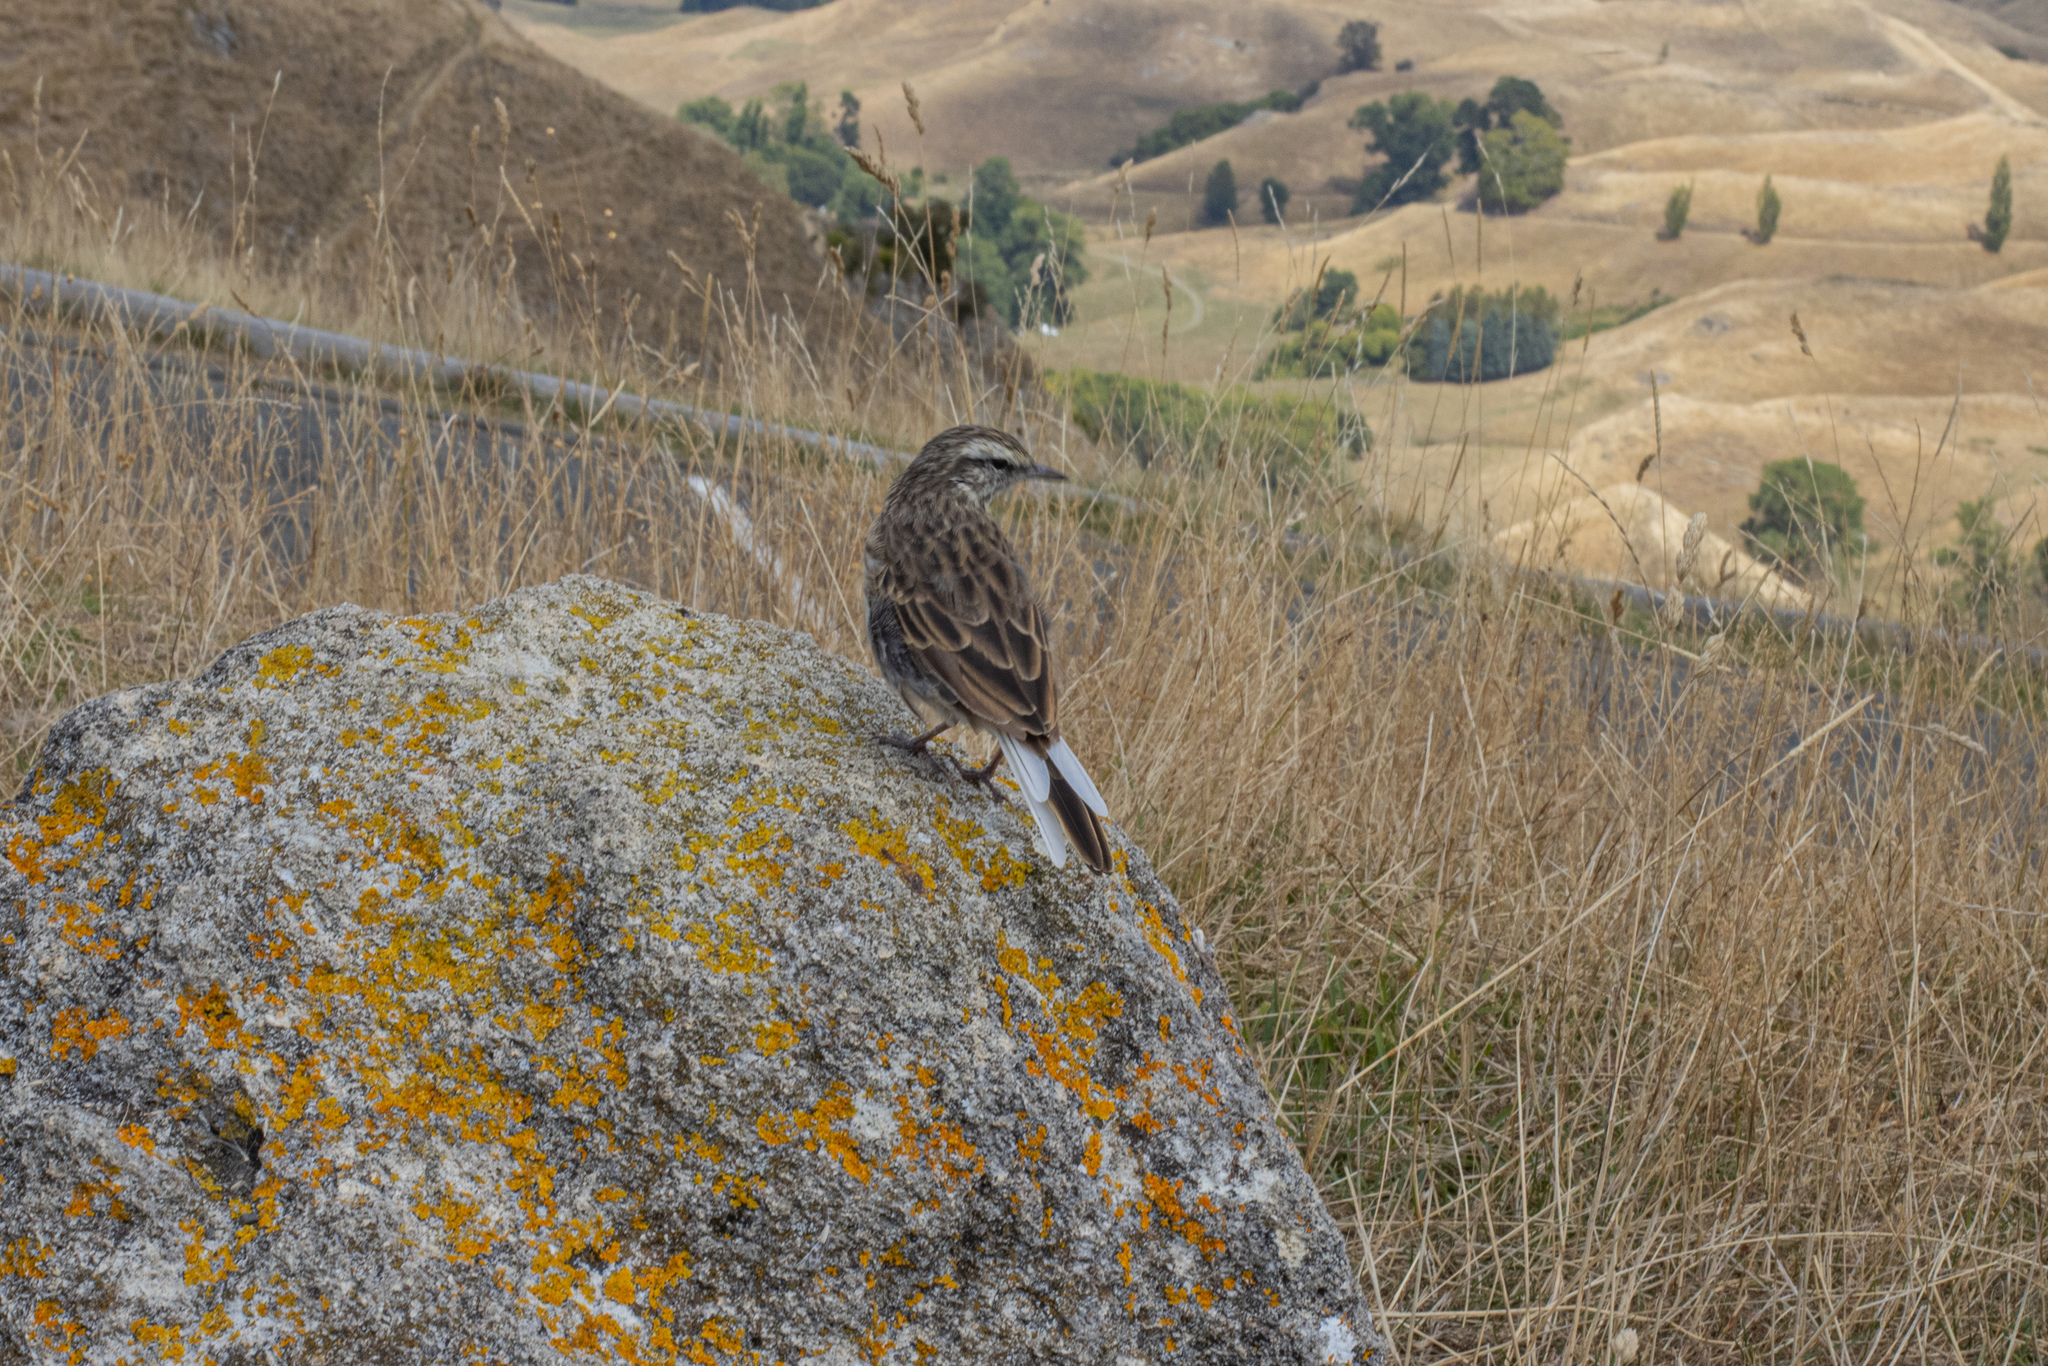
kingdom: Animalia
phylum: Chordata
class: Aves
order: Passeriformes
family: Motacillidae
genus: Anthus
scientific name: Anthus novaeseelandiae
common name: New zealand pipit
